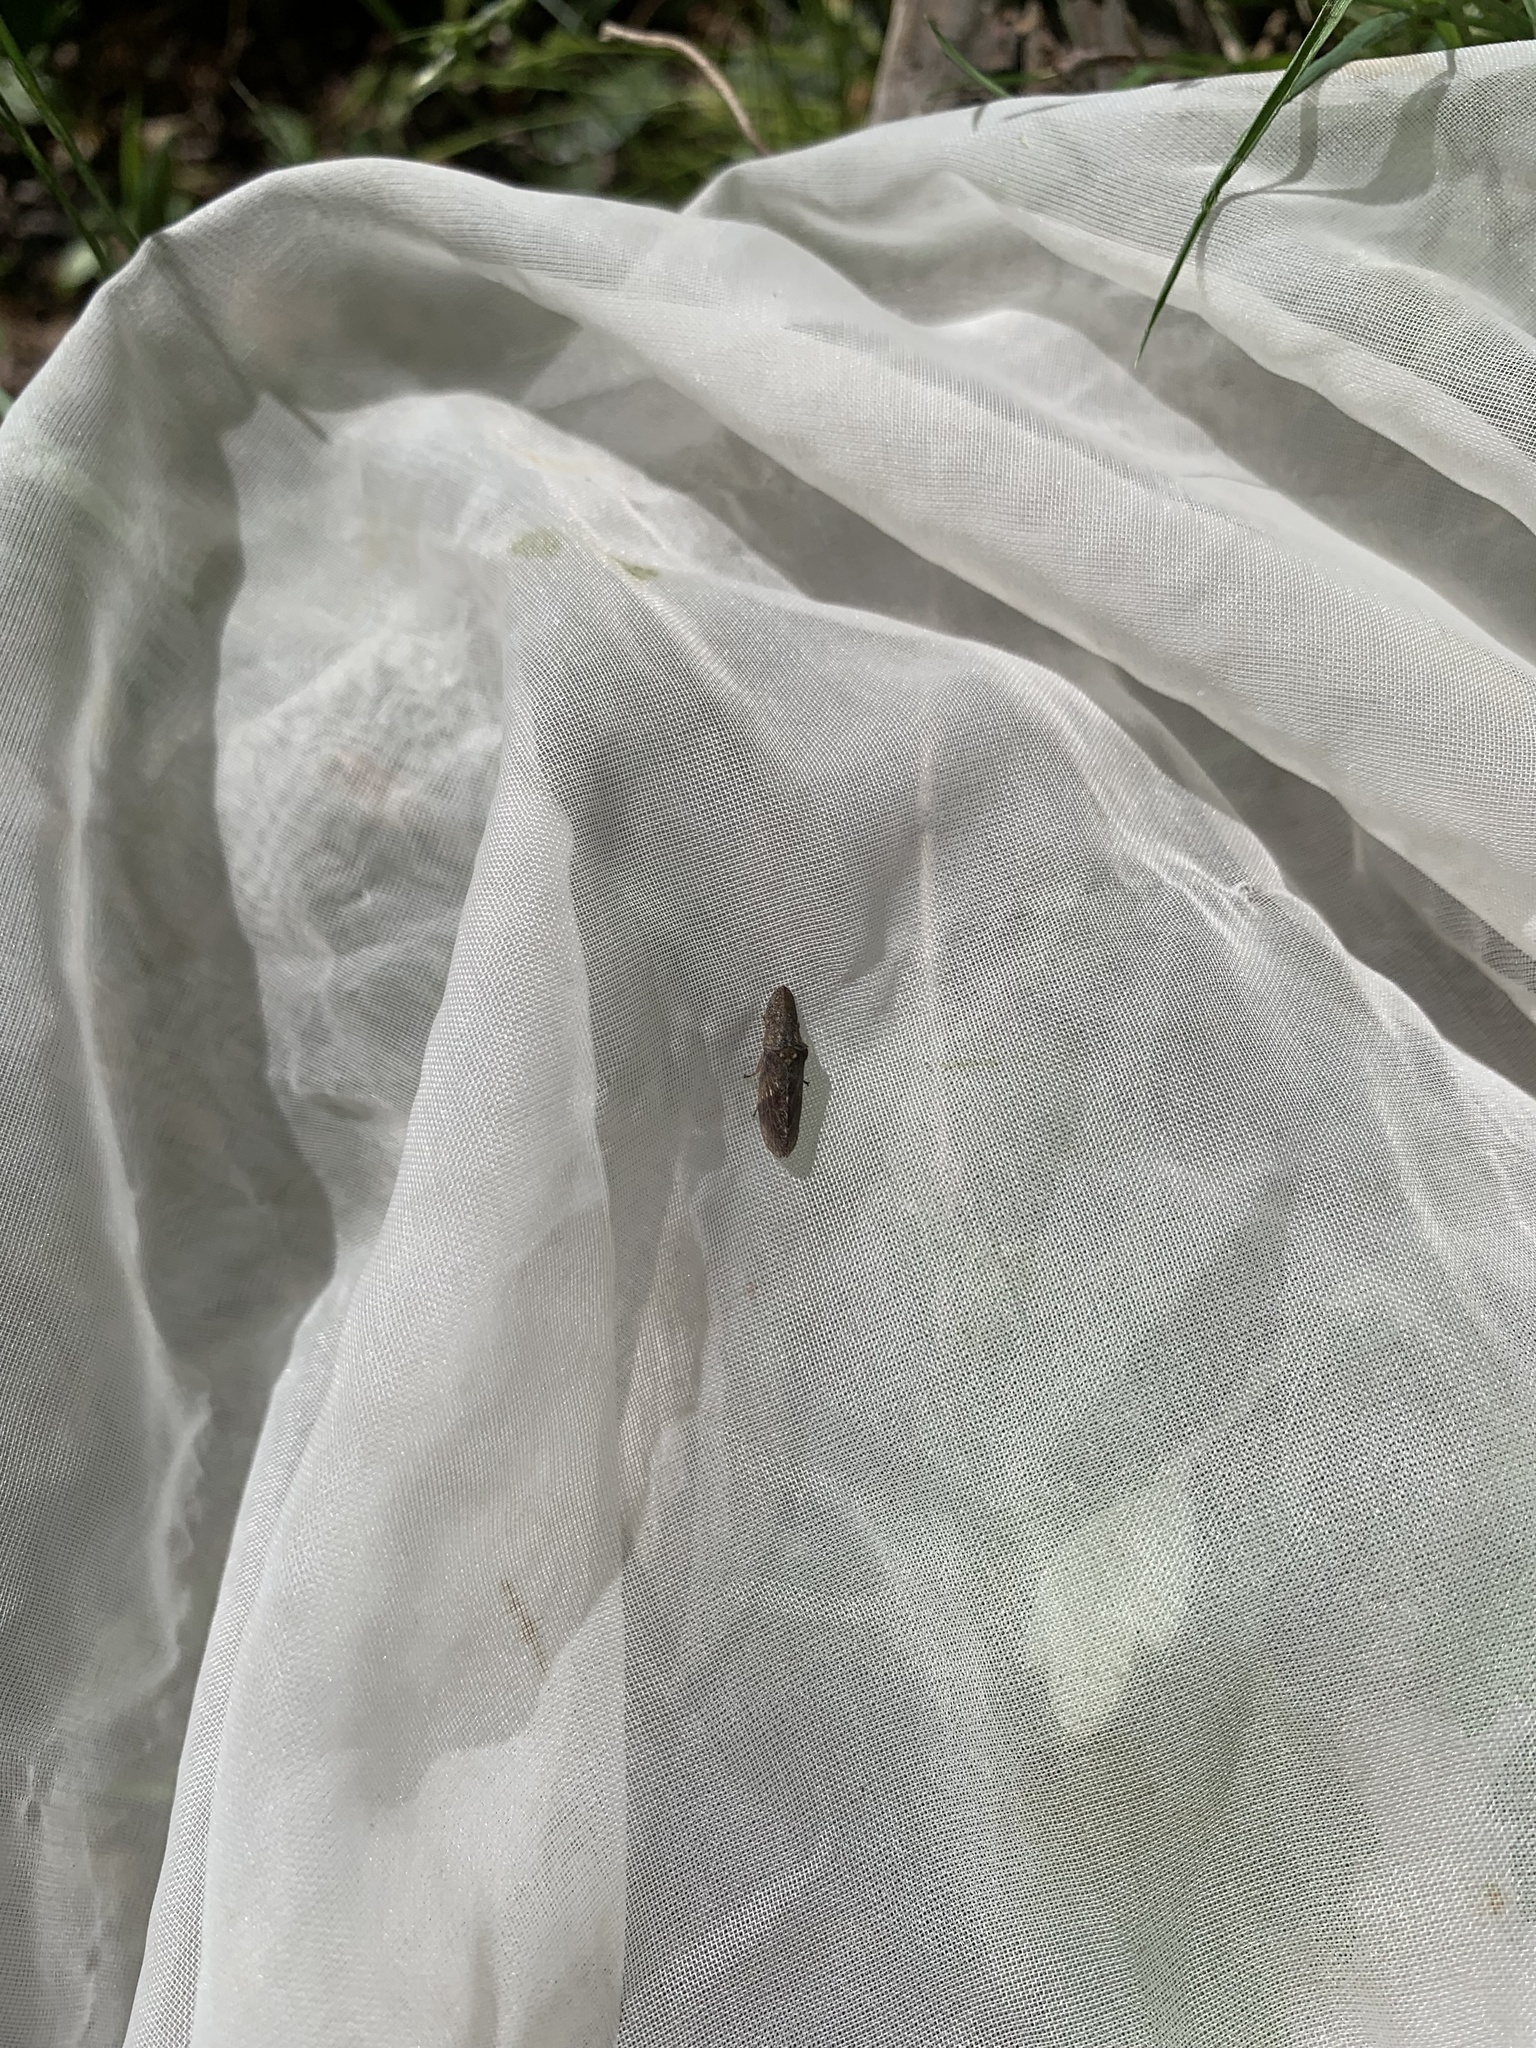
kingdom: Animalia
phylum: Arthropoda
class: Insecta
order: Hemiptera
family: Cicadellidae
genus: Ledropsis
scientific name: Ledropsis discolor
